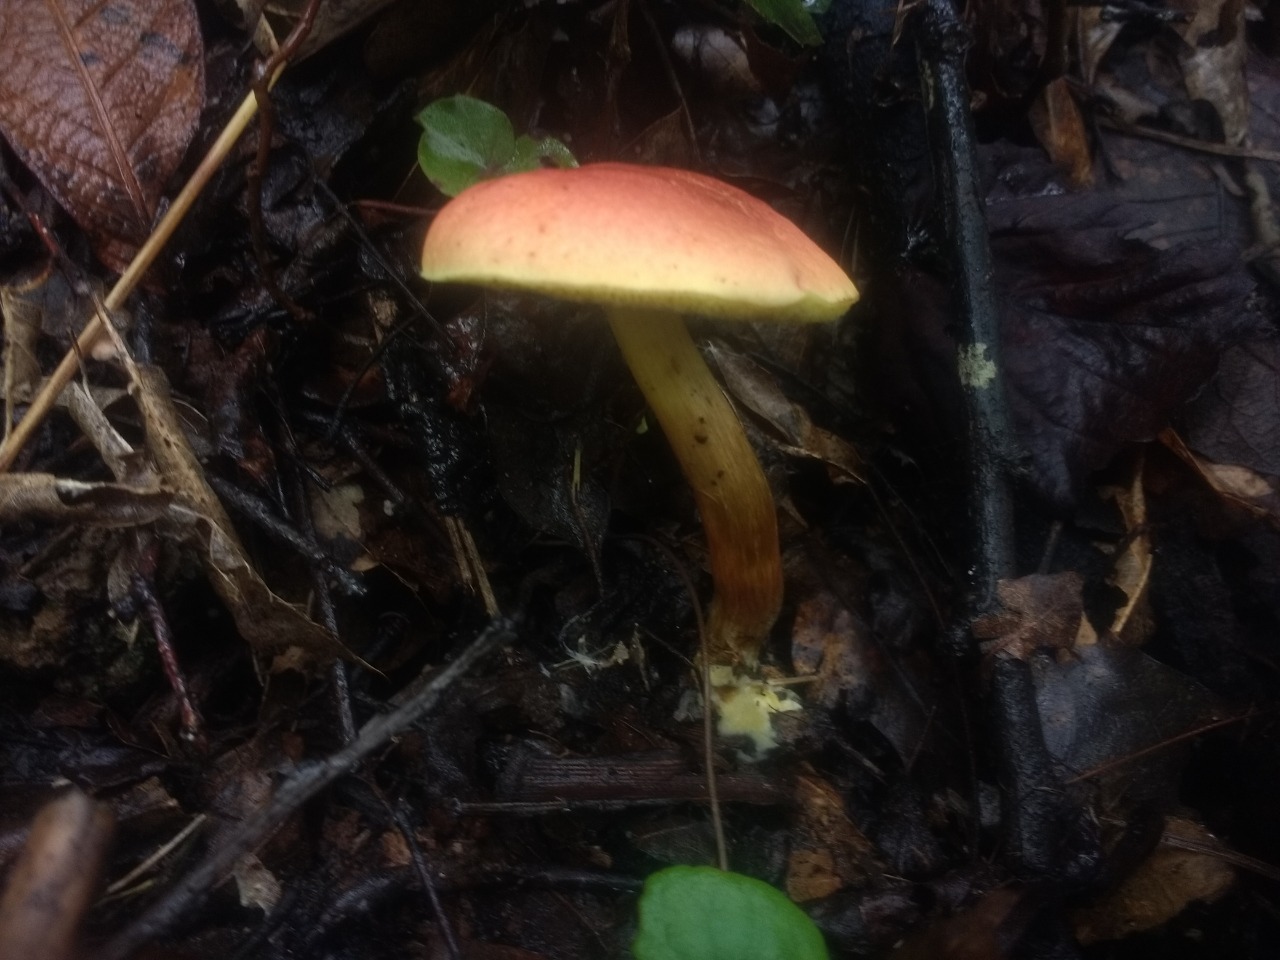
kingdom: Fungi
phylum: Basidiomycota
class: Agaricomycetes
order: Boletales
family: Boletaceae
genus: Hortiboletus
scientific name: Hortiboletus rubellus
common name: Ruby bolete
